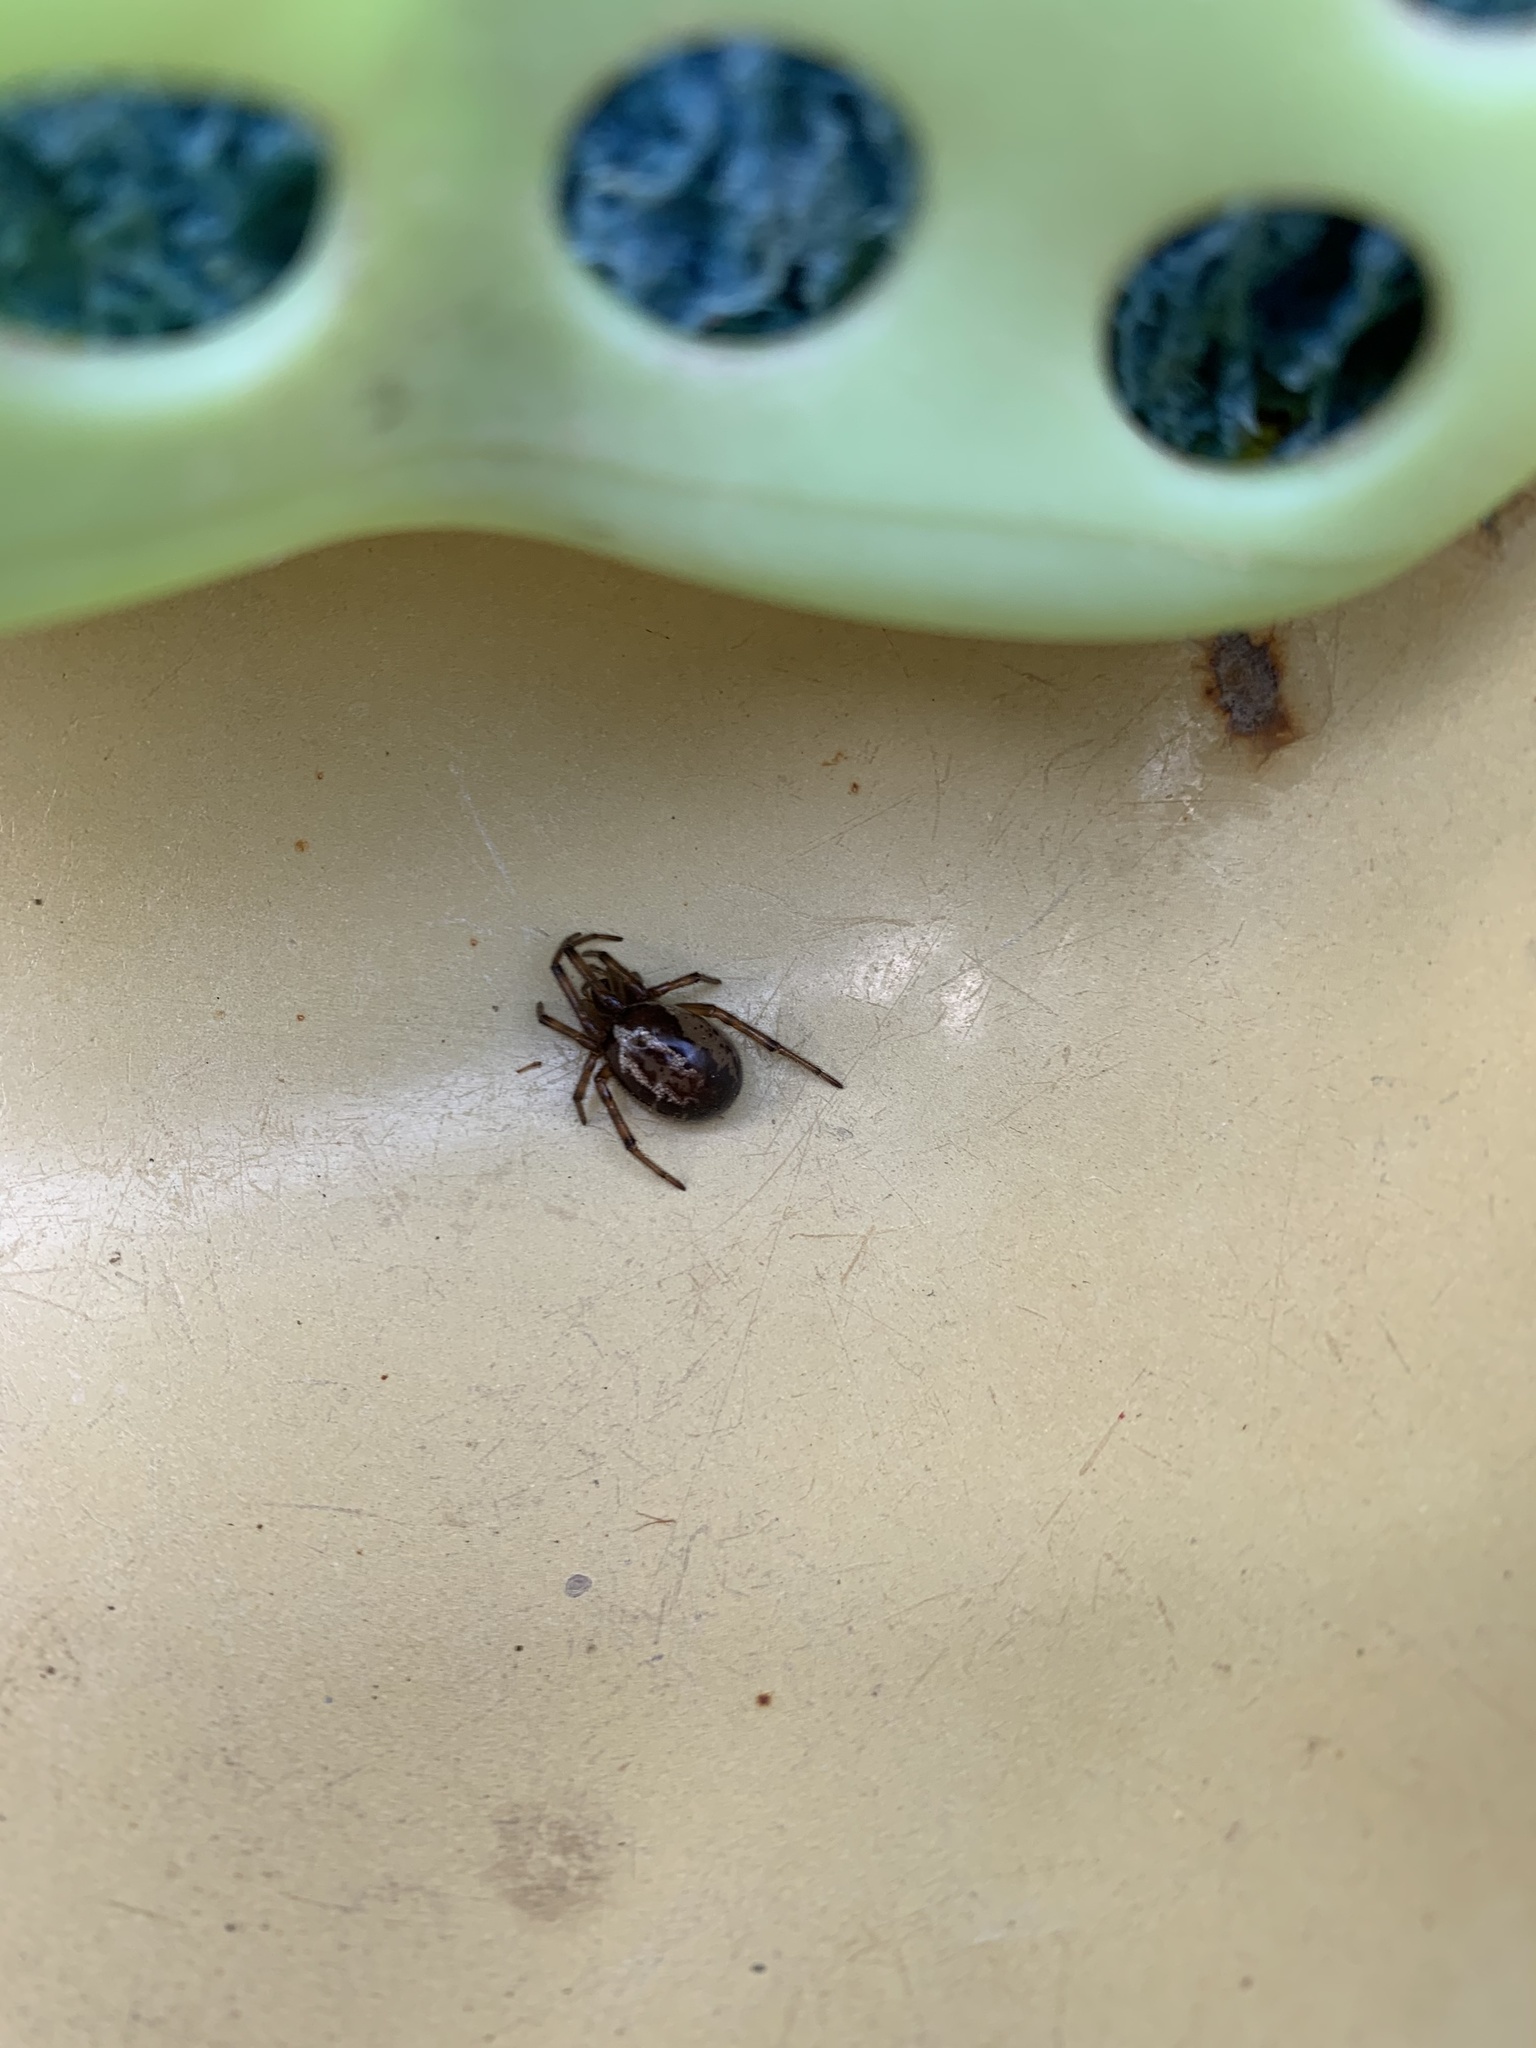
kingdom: Animalia
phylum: Arthropoda
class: Arachnida
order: Araneae
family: Theridiidae
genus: Steatoda
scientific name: Steatoda nobilis
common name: Cobweb weaver
